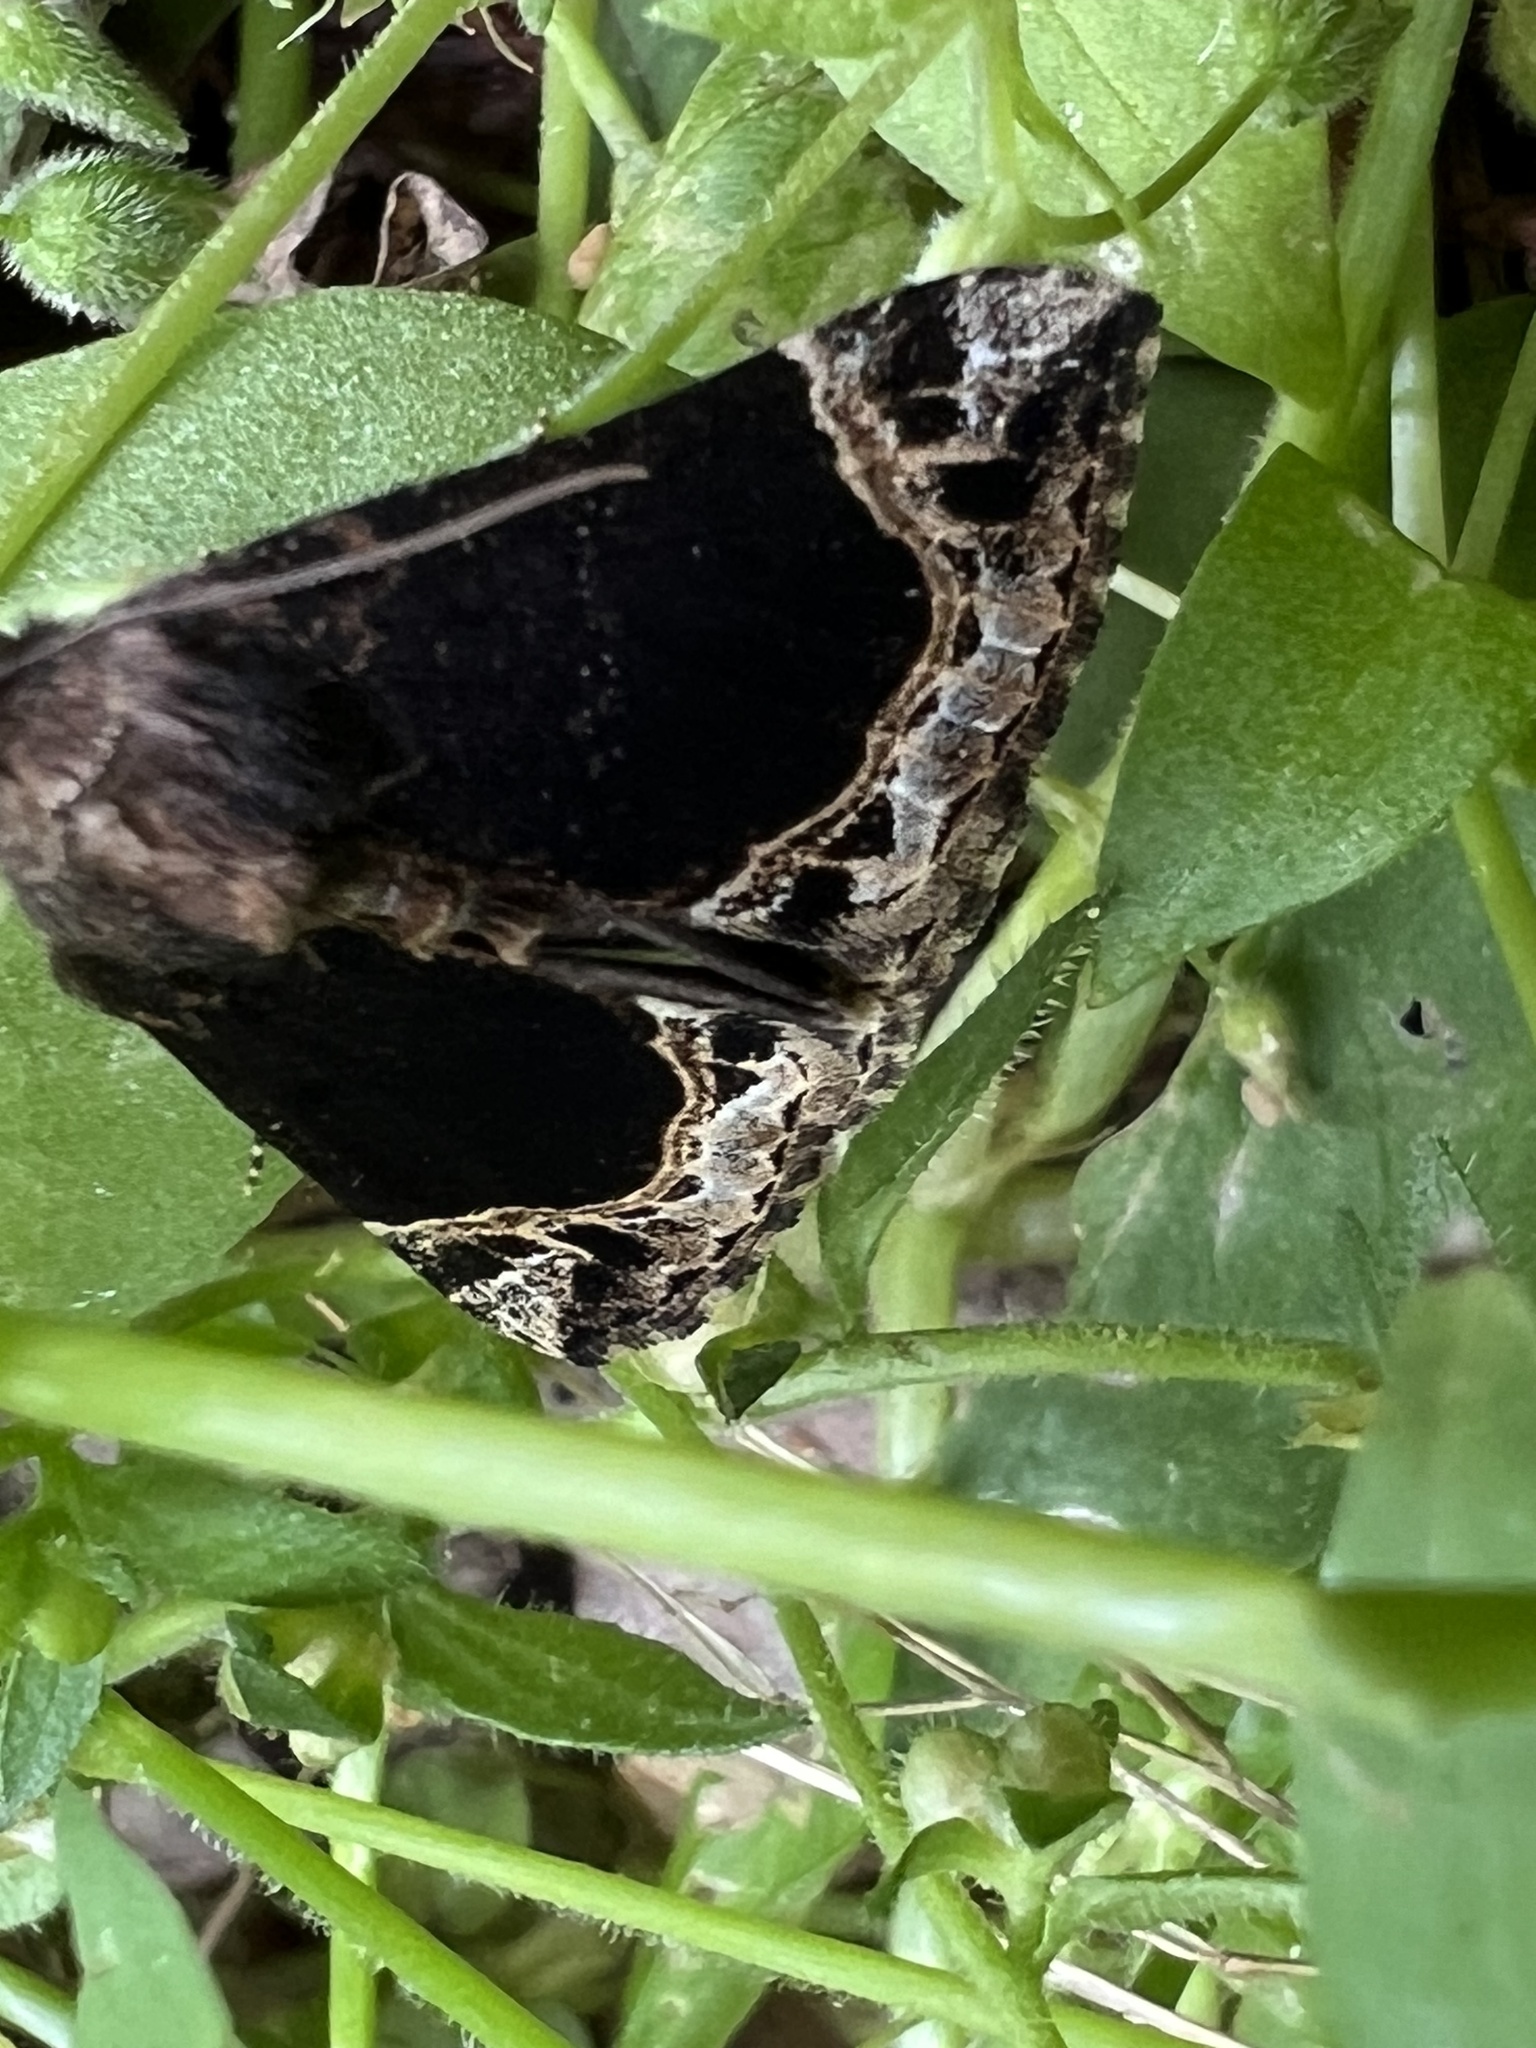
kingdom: Animalia
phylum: Arthropoda
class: Insecta
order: Lepidoptera
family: Erebidae
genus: Hypena
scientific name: Hypena abalienalis
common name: White-lined snout
